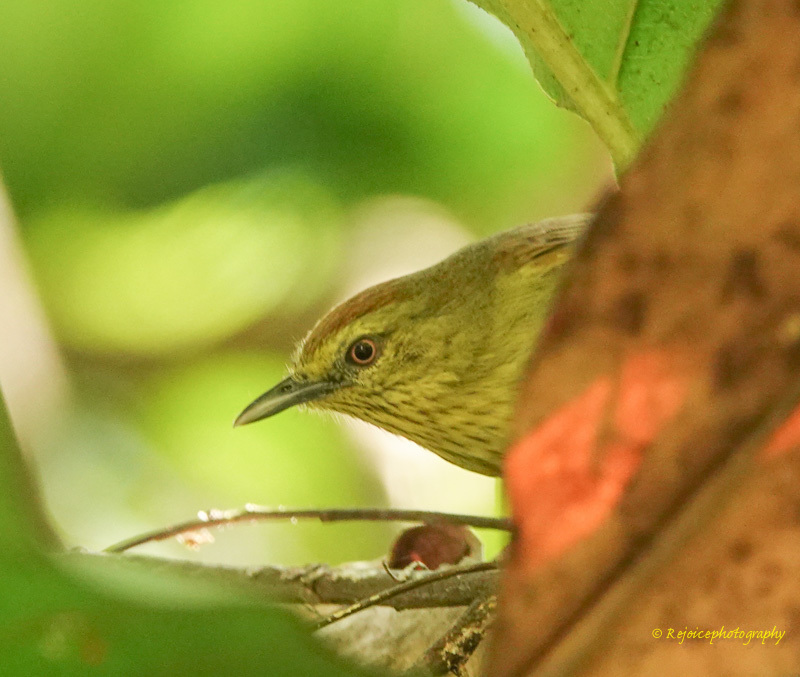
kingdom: Animalia
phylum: Chordata
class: Aves
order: Passeriformes
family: Timaliidae
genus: Macronus
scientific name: Macronus gularis
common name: Striped tit-babbler
